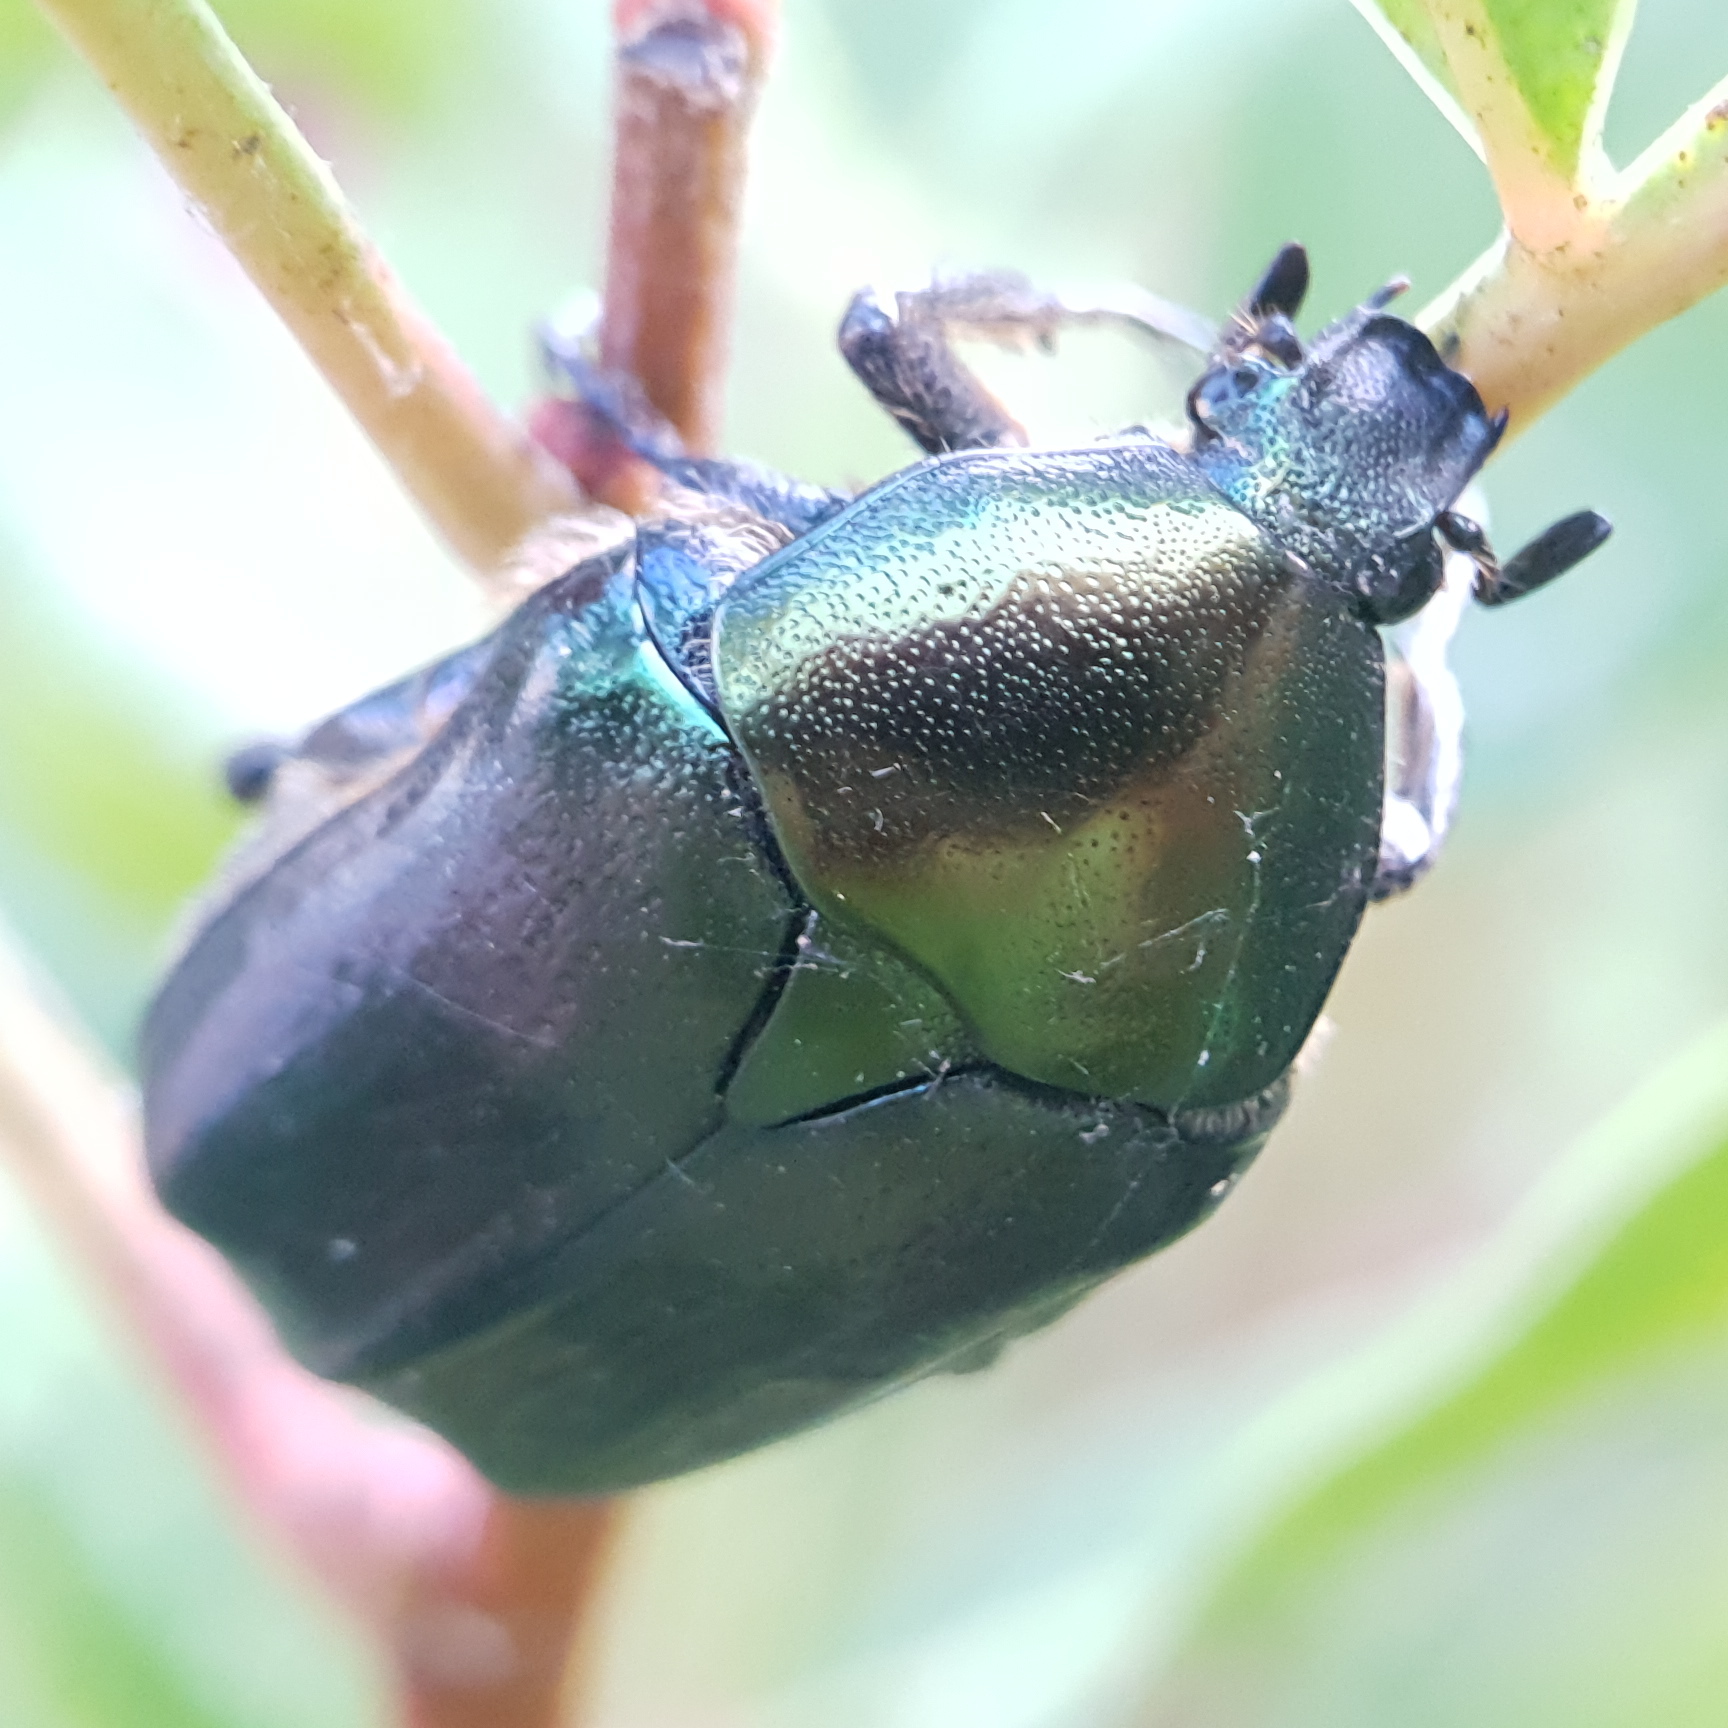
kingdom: Animalia
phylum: Arthropoda
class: Insecta
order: Coleoptera
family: Scarabaeidae
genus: Protaetia
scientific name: Protaetia judith
